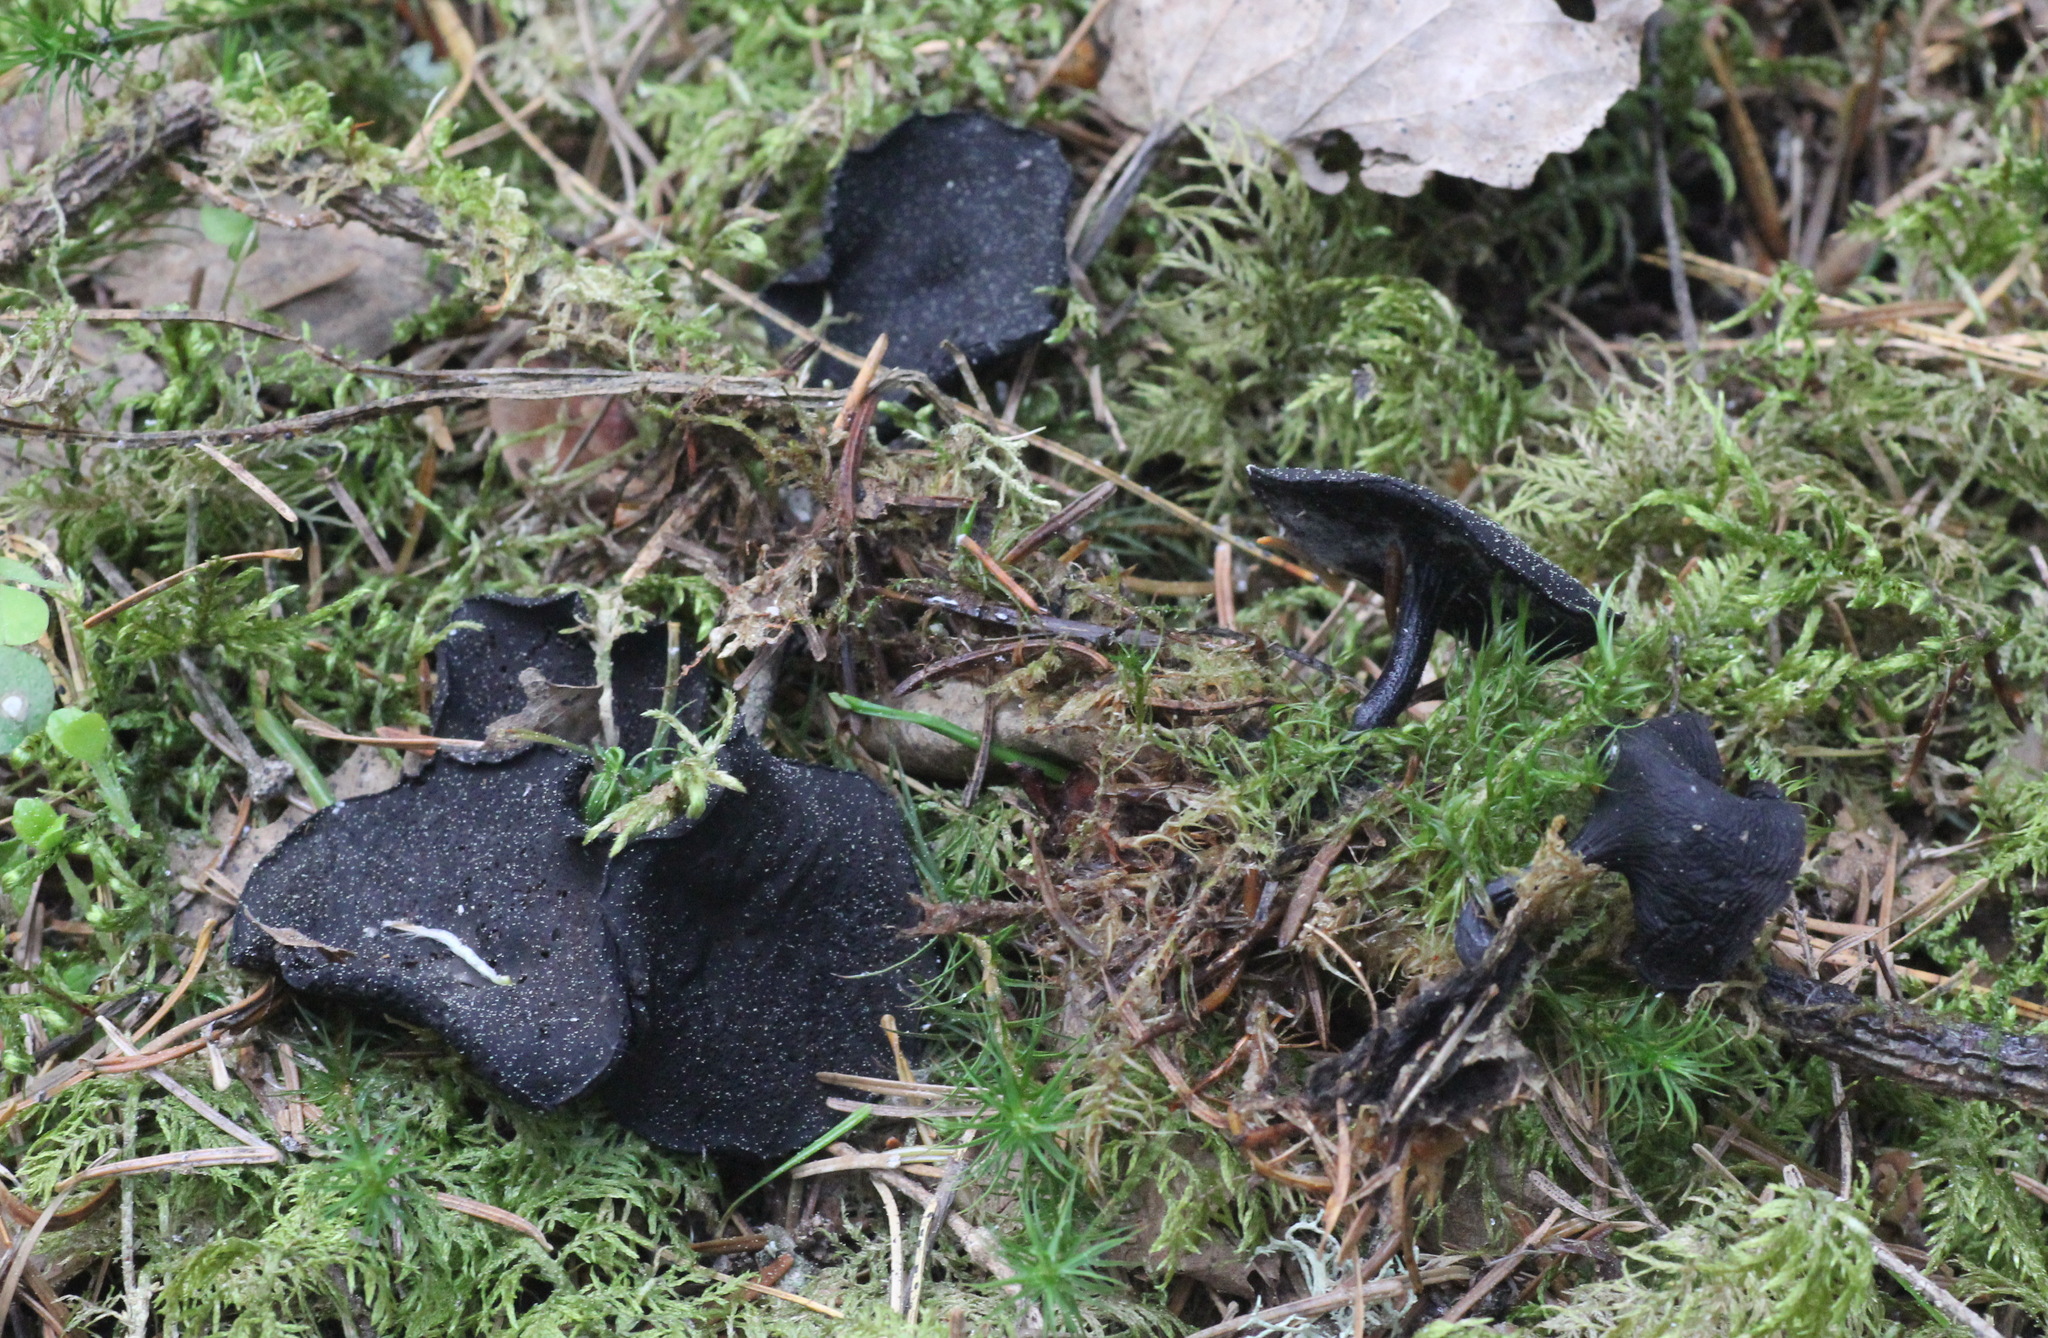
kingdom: Fungi
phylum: Ascomycota
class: Pezizomycetes
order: Pezizales
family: Sarcosomataceae
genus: Pseudoplectania
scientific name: Pseudoplectania melaena
